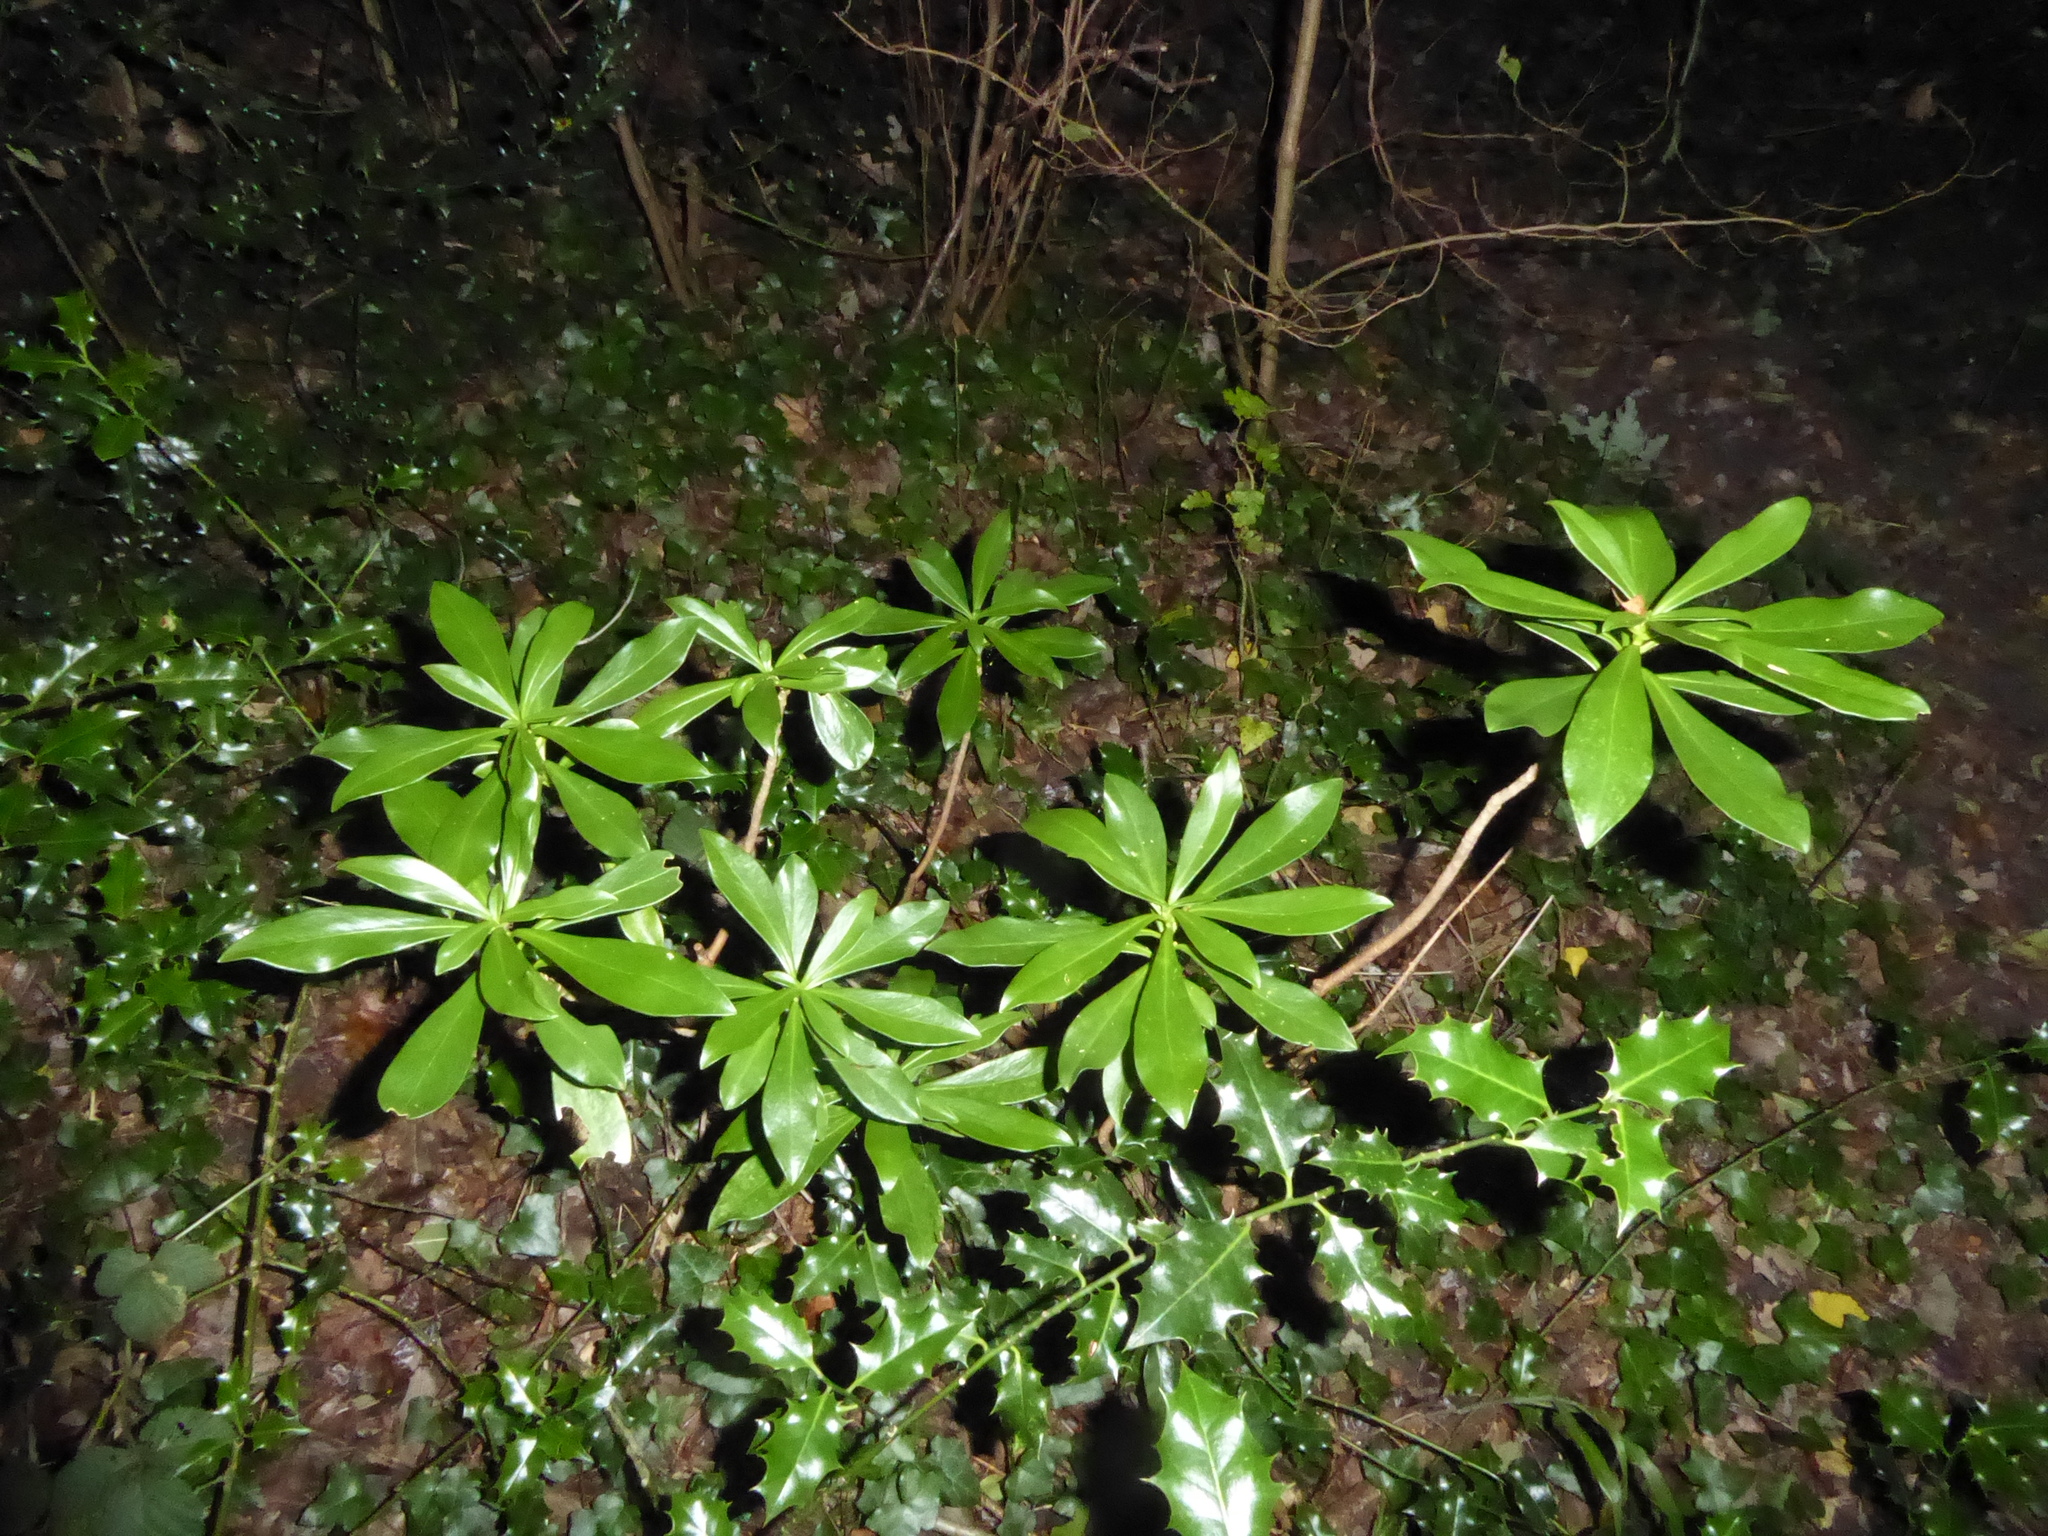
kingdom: Plantae
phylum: Tracheophyta
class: Magnoliopsida
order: Malvales
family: Thymelaeaceae
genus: Daphne
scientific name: Daphne laureola
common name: Spurge-laurel
